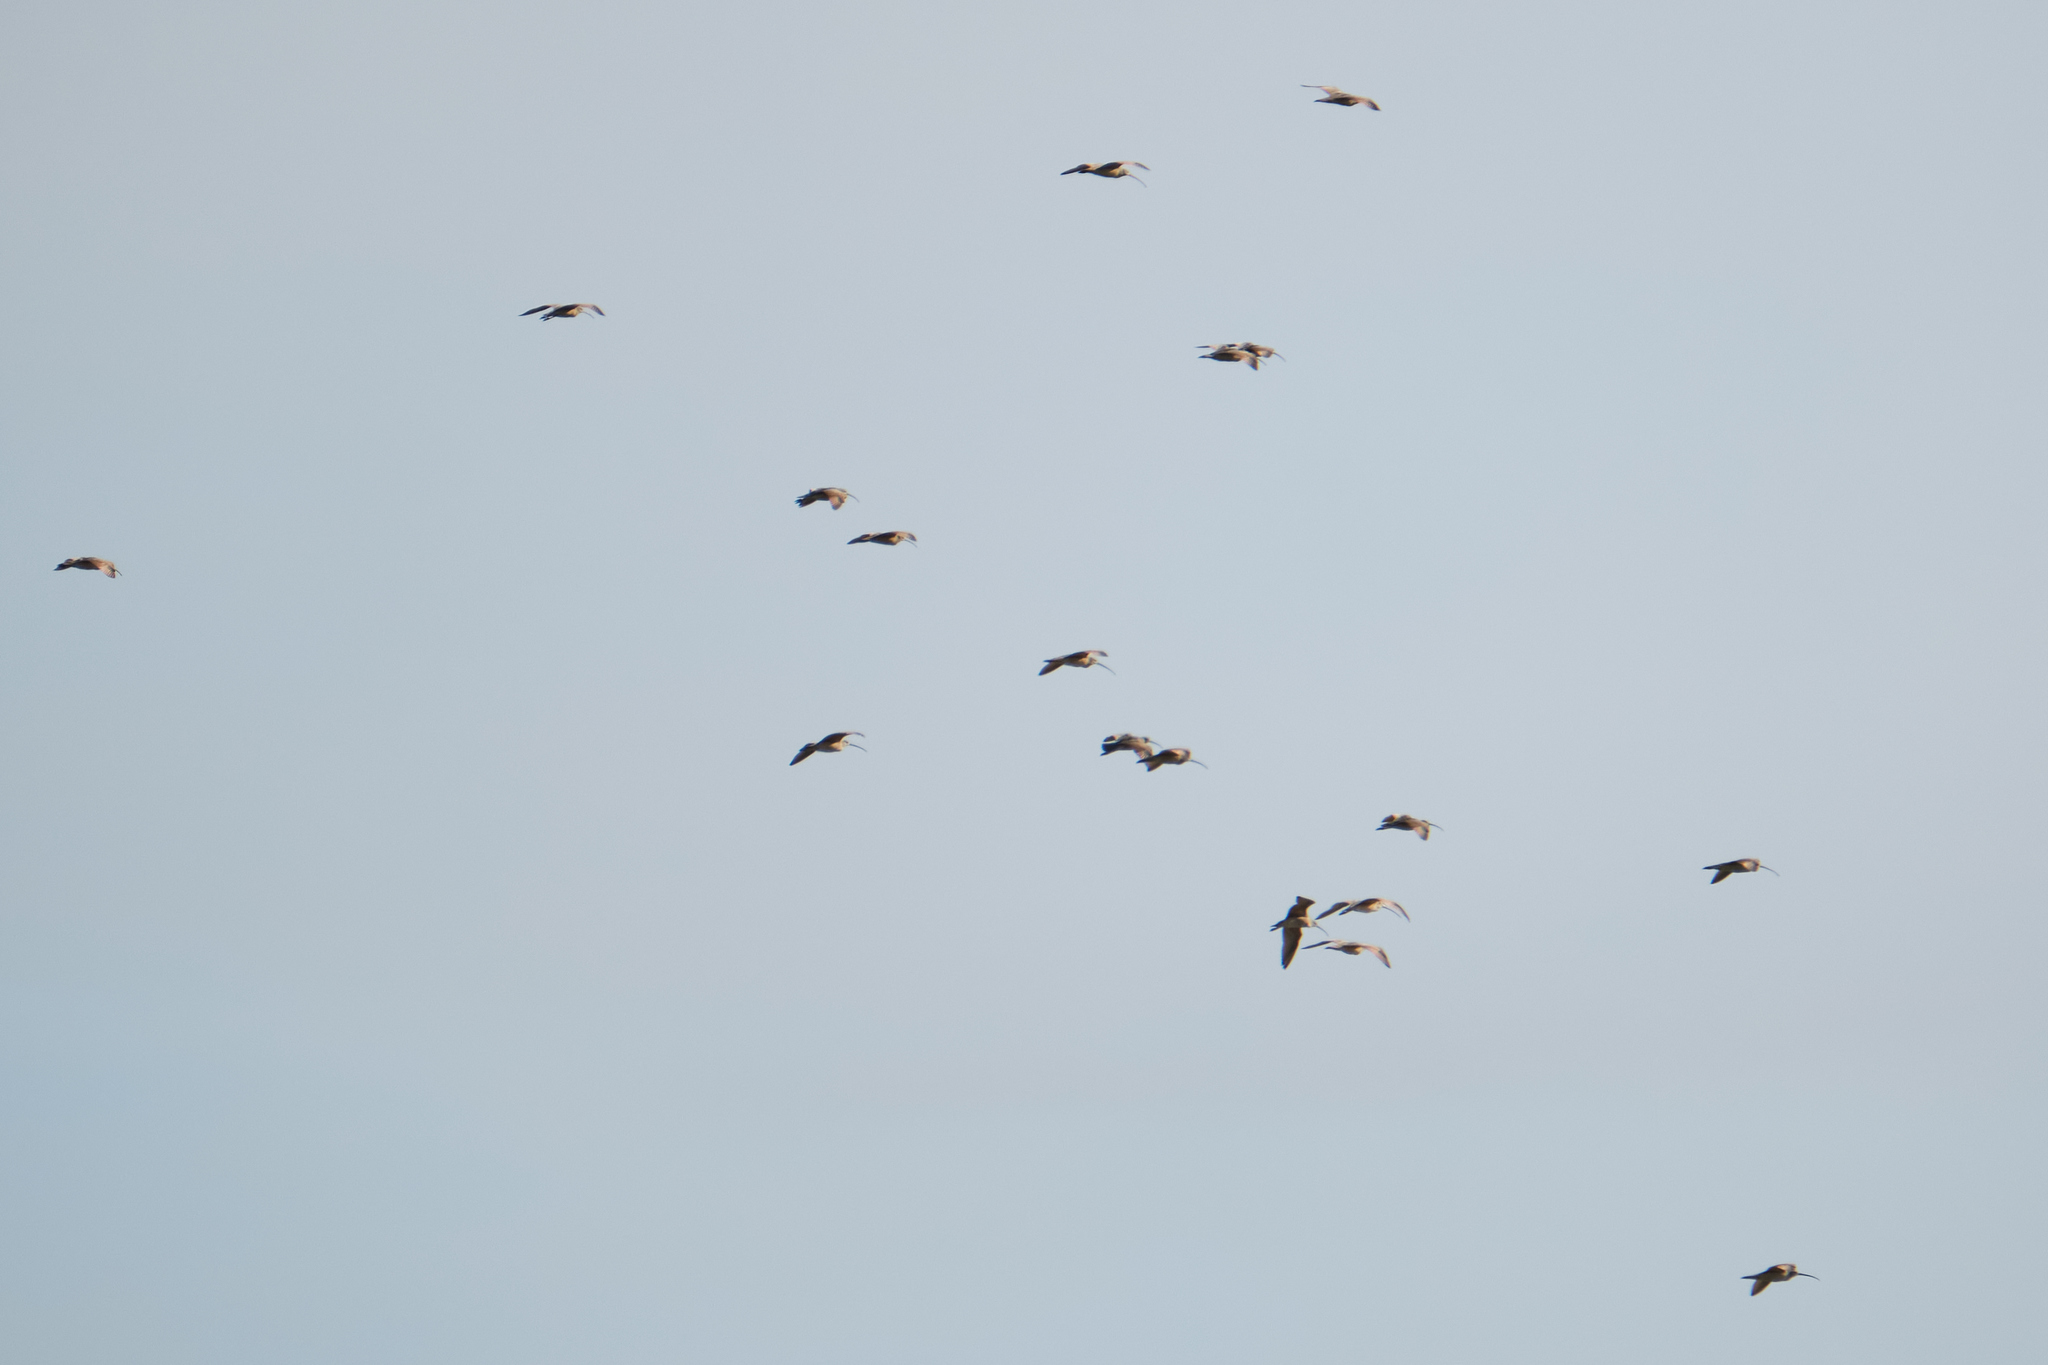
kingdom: Animalia
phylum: Chordata
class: Aves
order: Charadriiformes
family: Scolopacidae
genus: Numenius
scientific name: Numenius americanus
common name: Long-billed curlew
